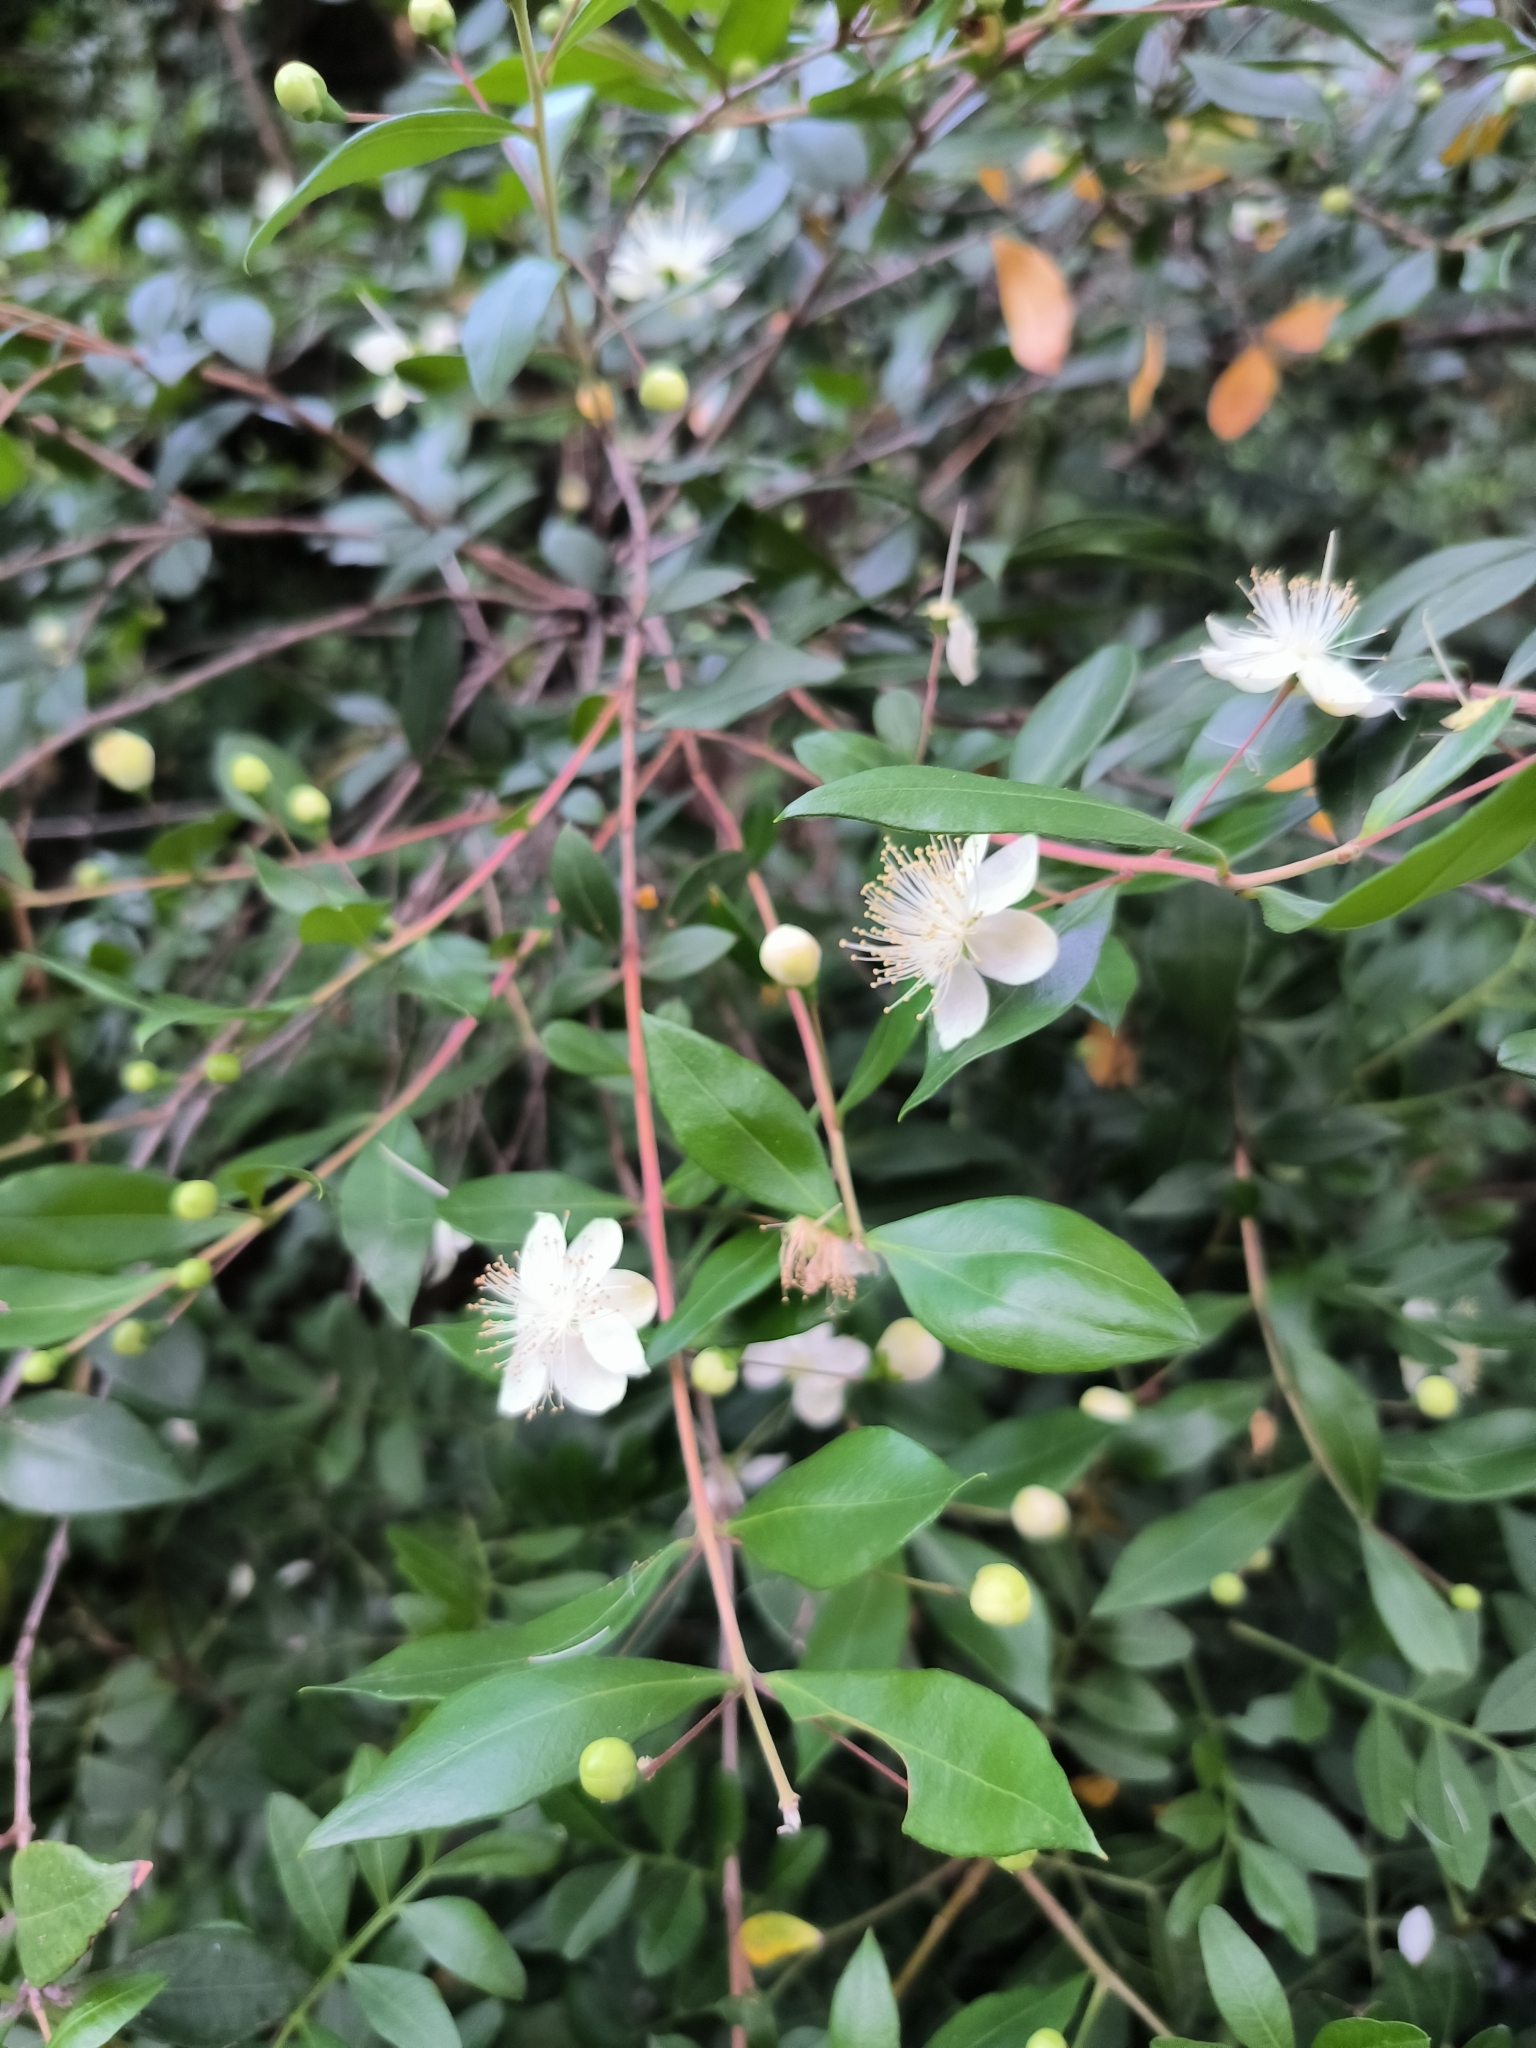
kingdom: Plantae
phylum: Tracheophyta
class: Magnoliopsida
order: Myrtales
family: Myrtaceae
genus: Myrtus
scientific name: Myrtus communis
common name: Myrtle
